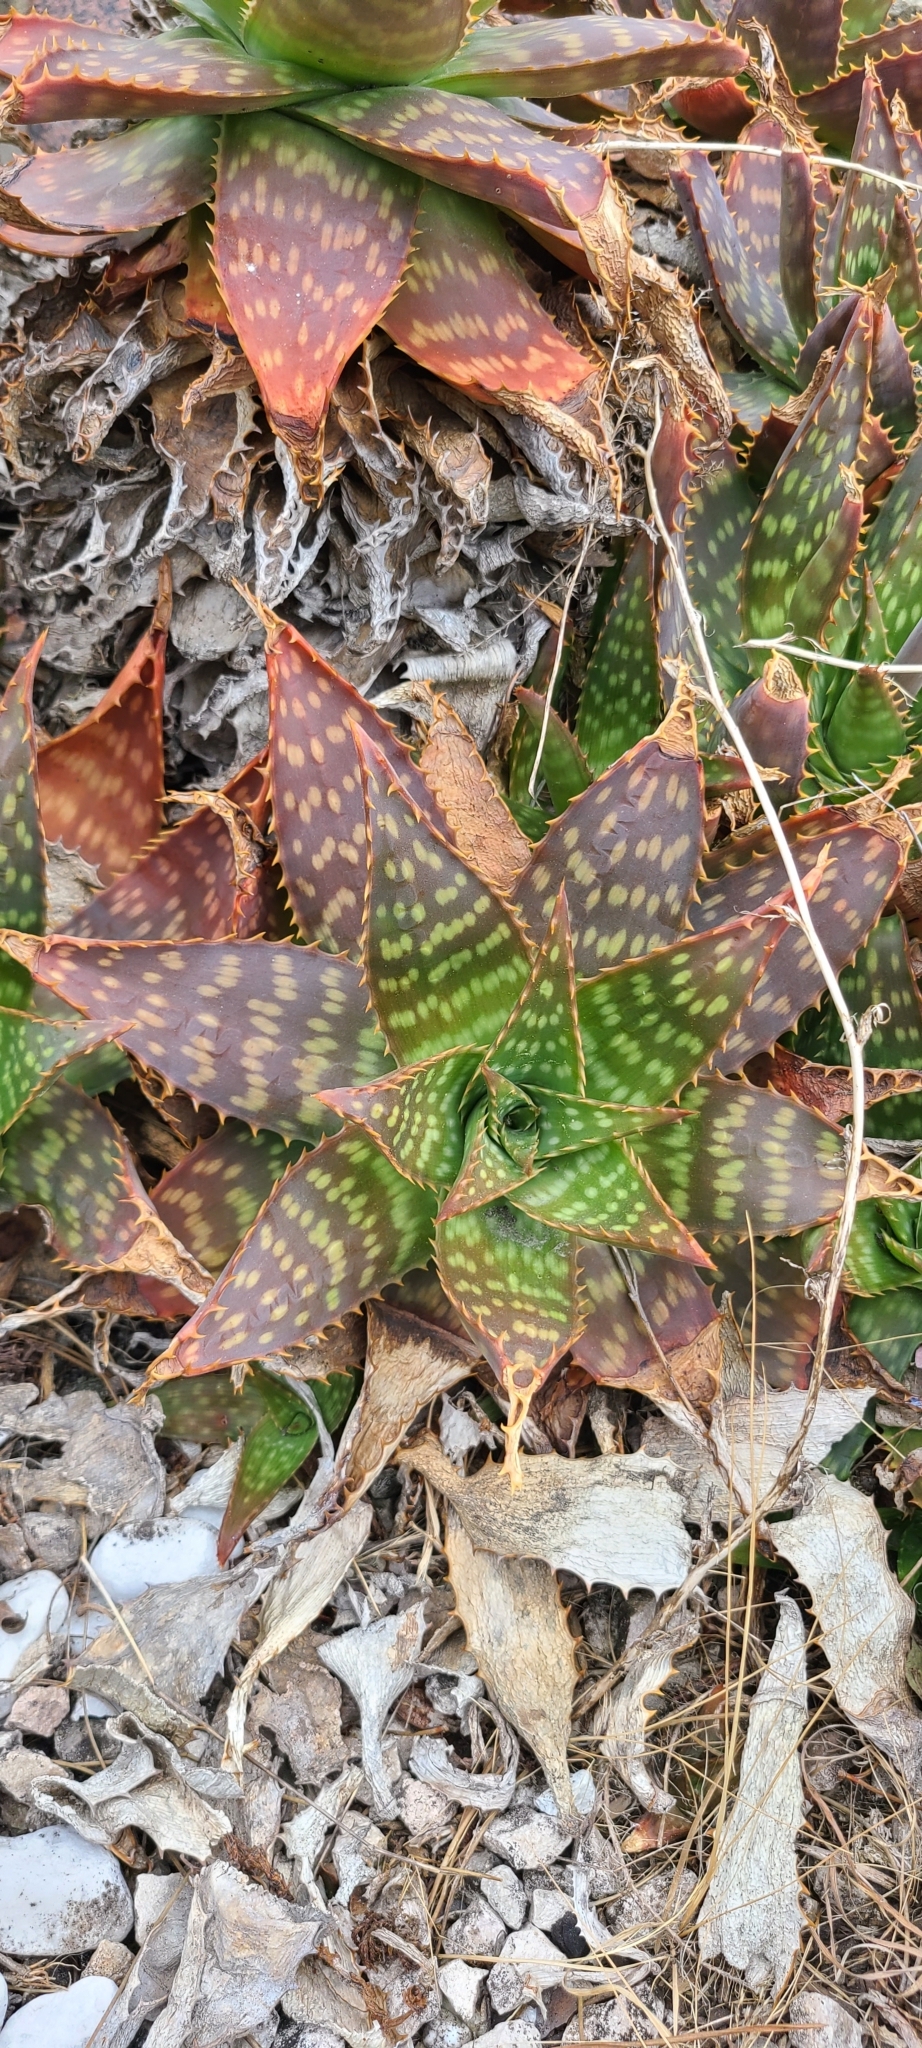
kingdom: Plantae
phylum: Tracheophyta
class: Liliopsida
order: Asparagales
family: Asphodelaceae
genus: Aloe
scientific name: Aloe maculata
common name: Broadleaf aloe
